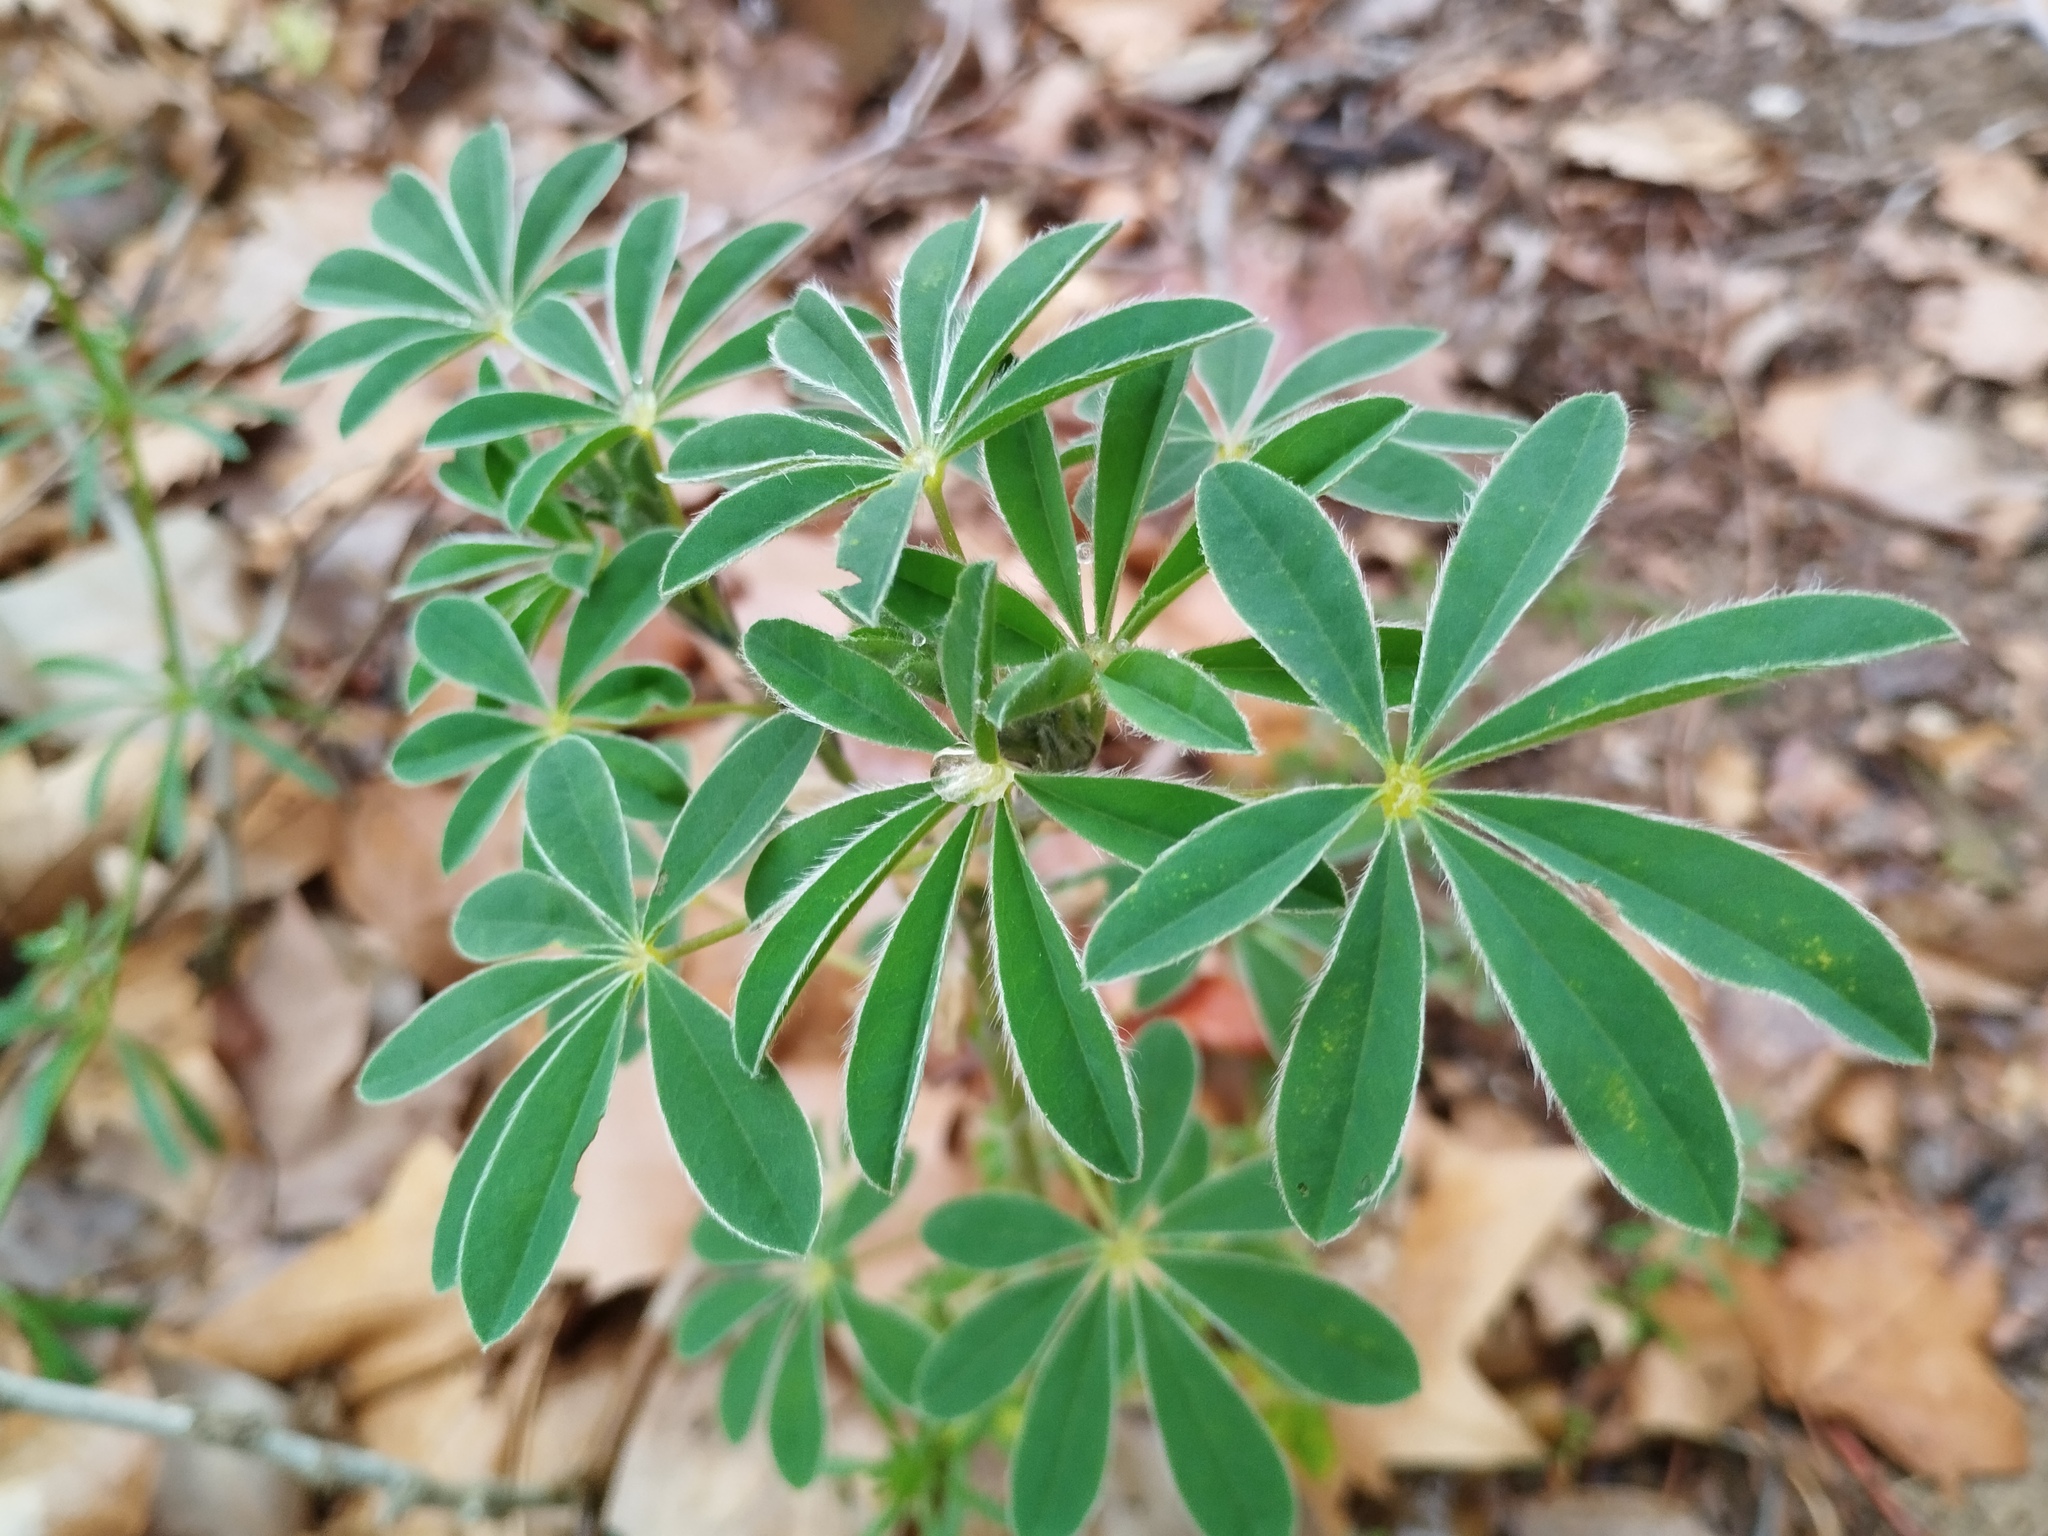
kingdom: Plantae
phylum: Tracheophyta
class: Magnoliopsida
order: Fabales
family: Fabaceae
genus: Lupinus
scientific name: Lupinus albus
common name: White lupin
